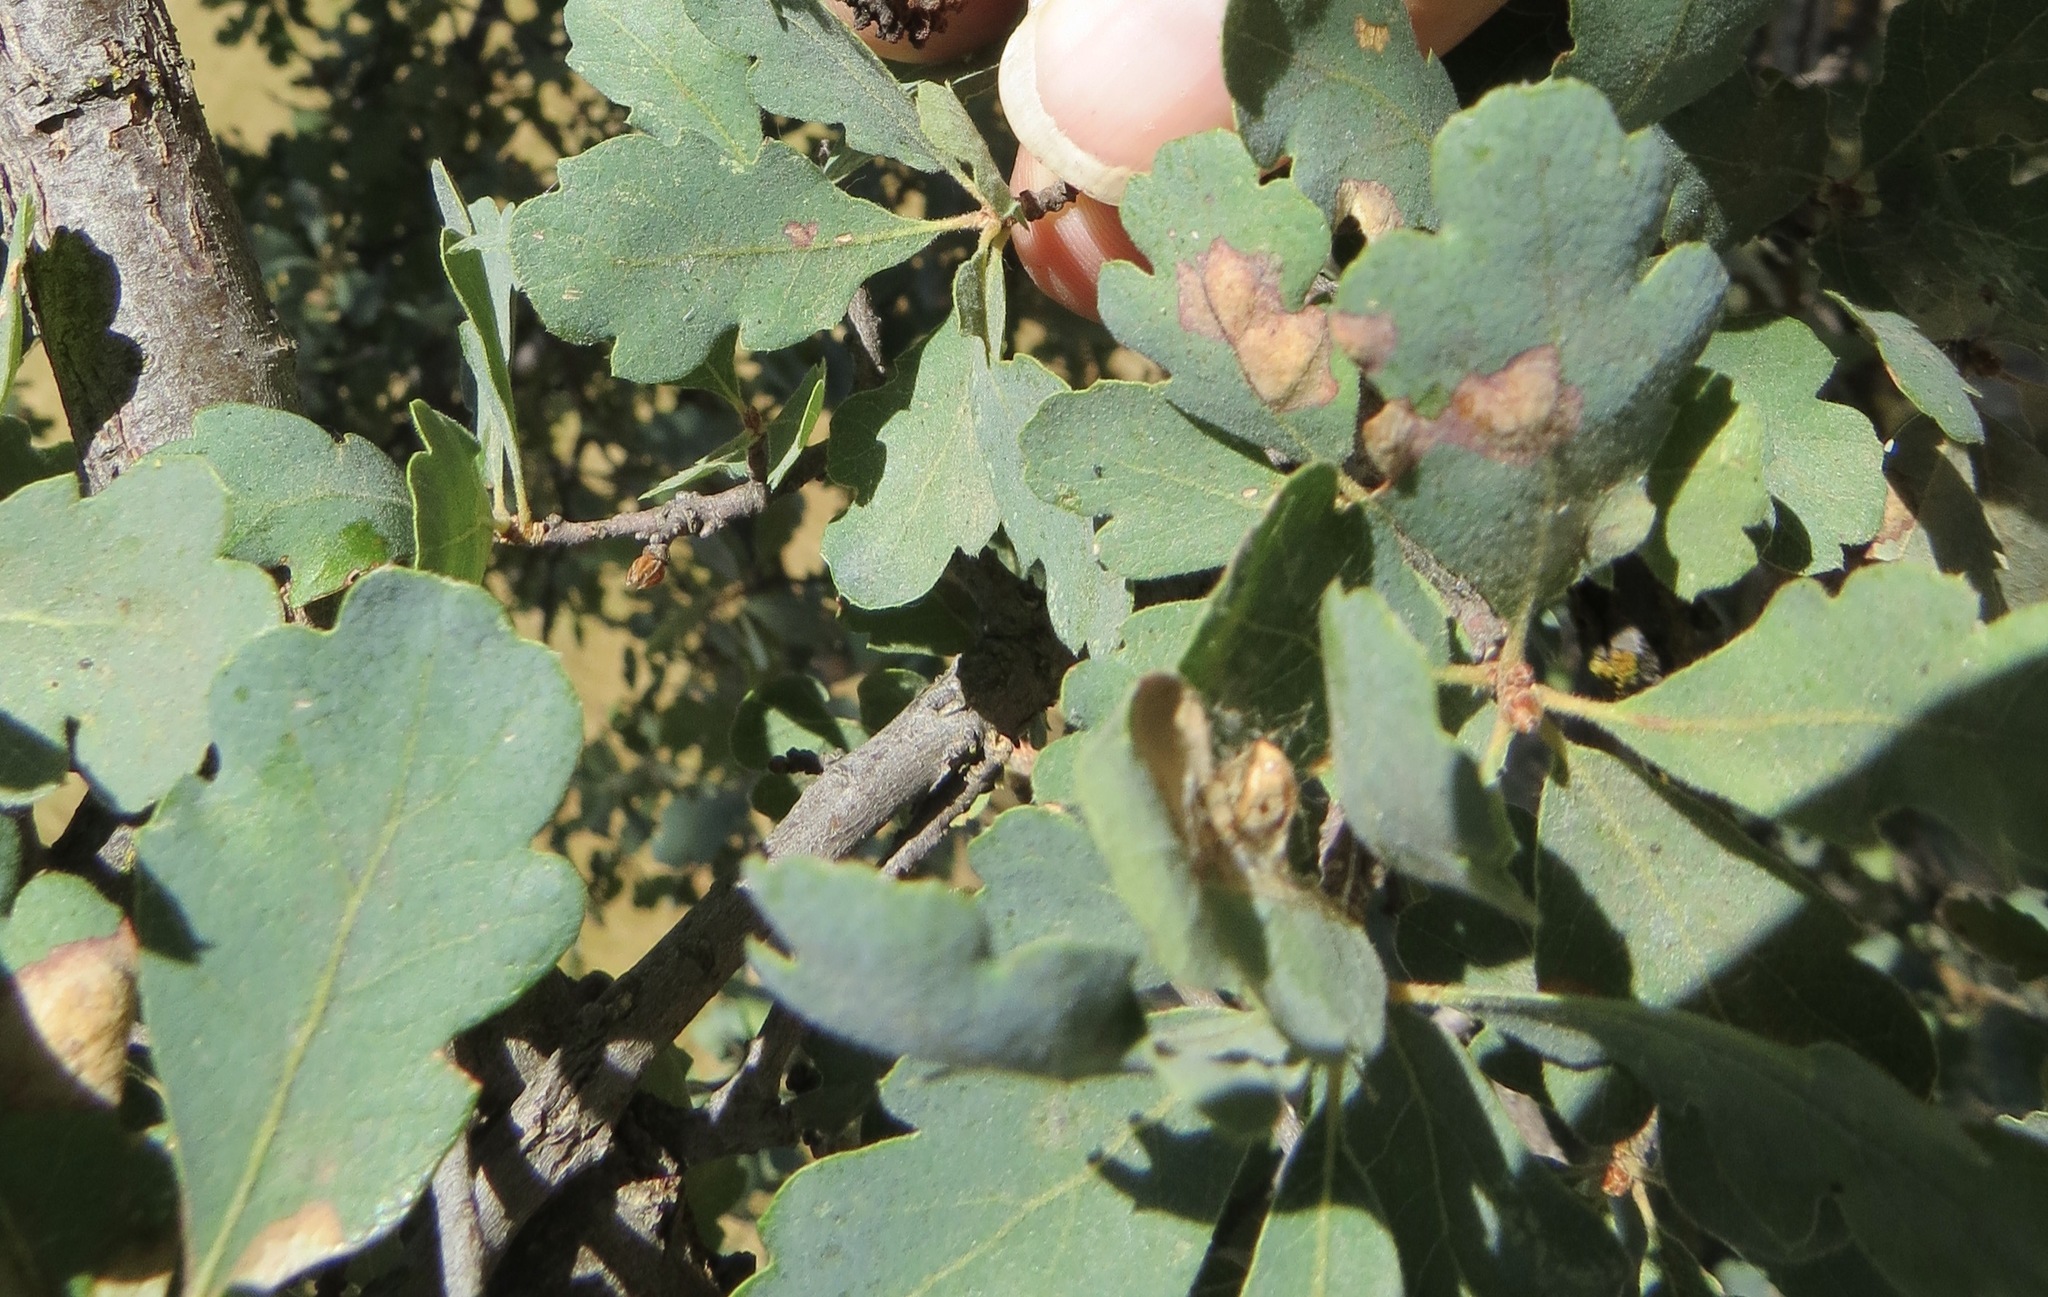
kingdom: Plantae
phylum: Tracheophyta
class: Magnoliopsida
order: Fagales
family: Fagaceae
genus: Quercus
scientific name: Quercus douglasii
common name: Blue oak
